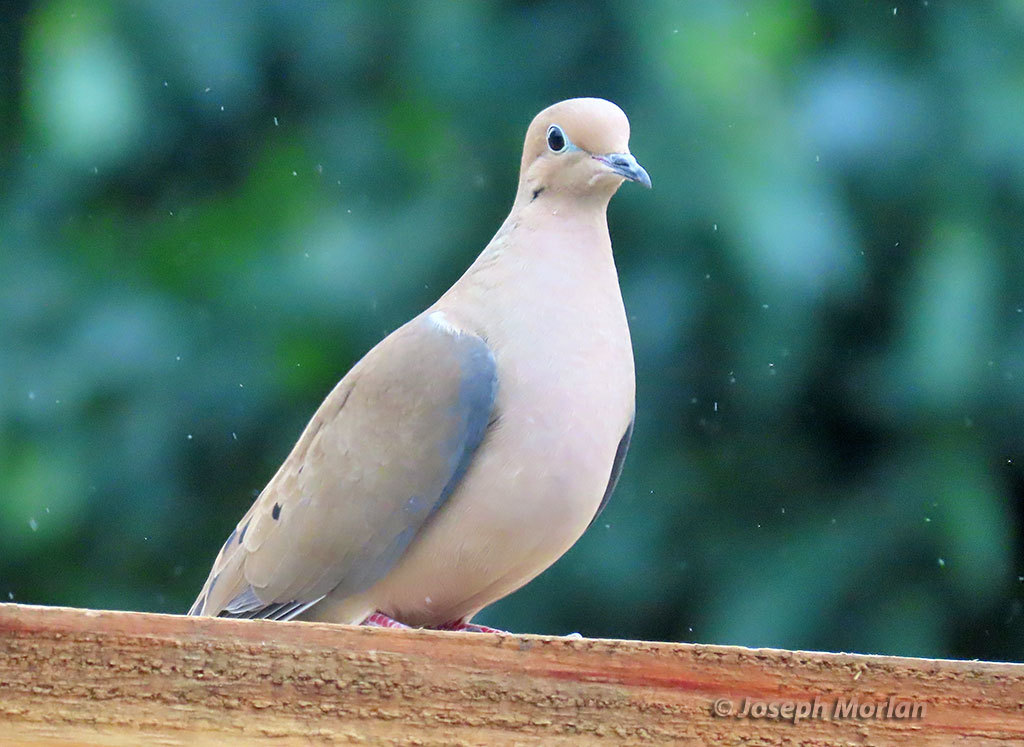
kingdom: Animalia
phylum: Chordata
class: Aves
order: Columbiformes
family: Columbidae
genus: Zenaida
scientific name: Zenaida macroura
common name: Mourning dove
